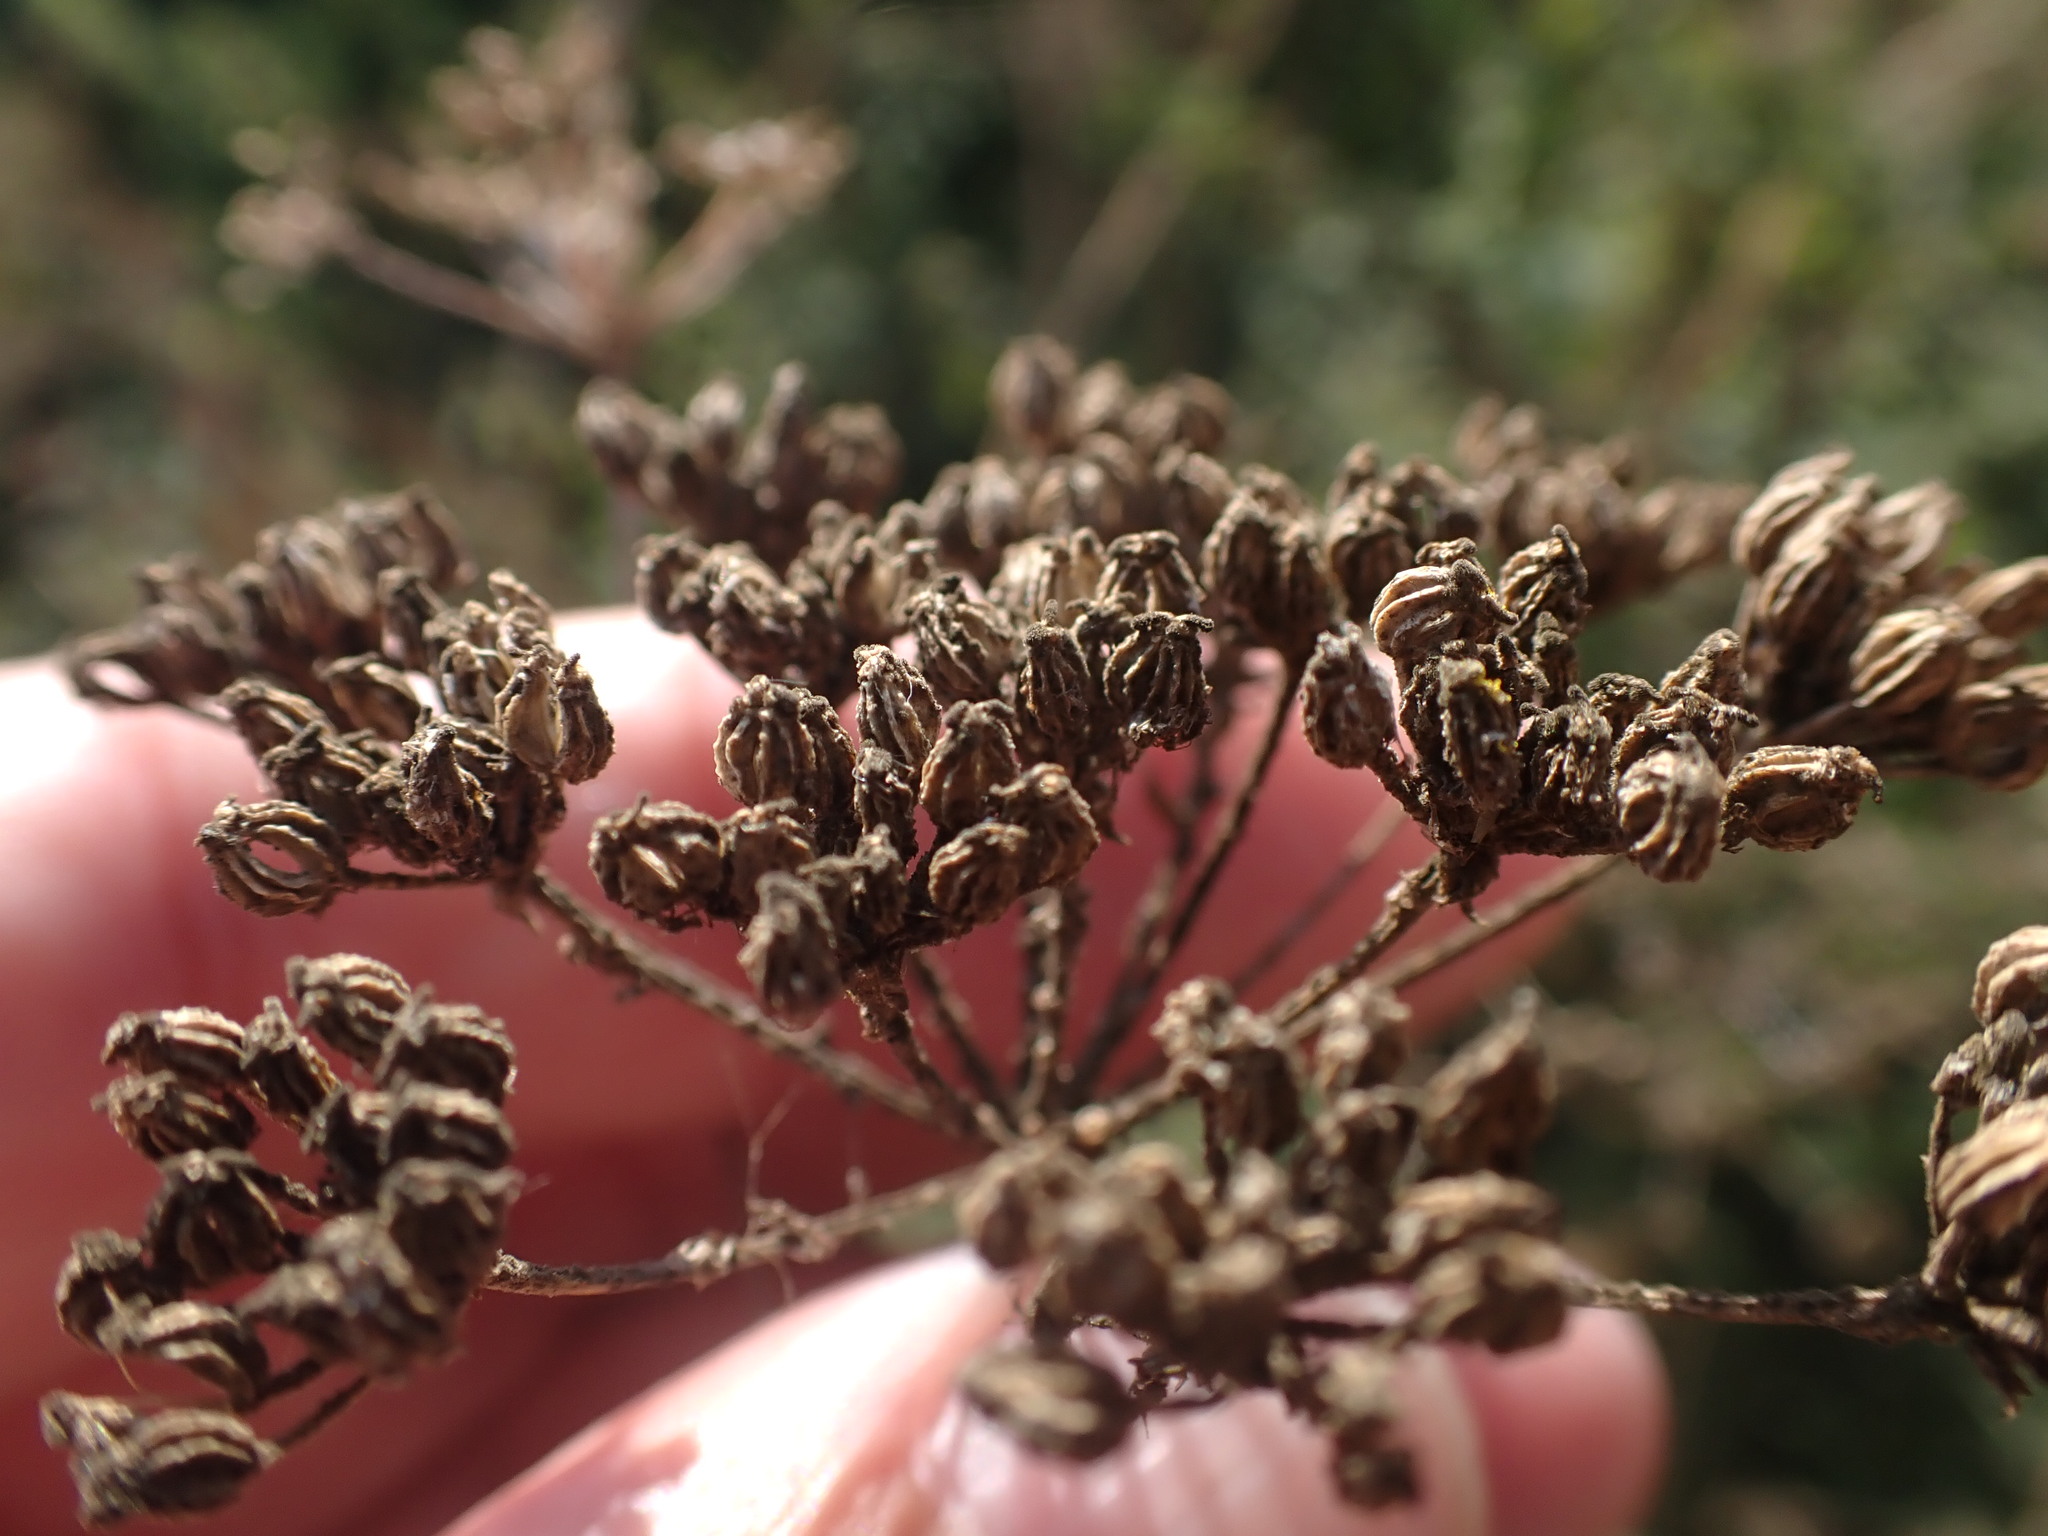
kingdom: Plantae
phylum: Tracheophyta
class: Magnoliopsida
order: Apiales
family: Apiaceae
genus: Conium
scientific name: Conium maculatum
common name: Hemlock
